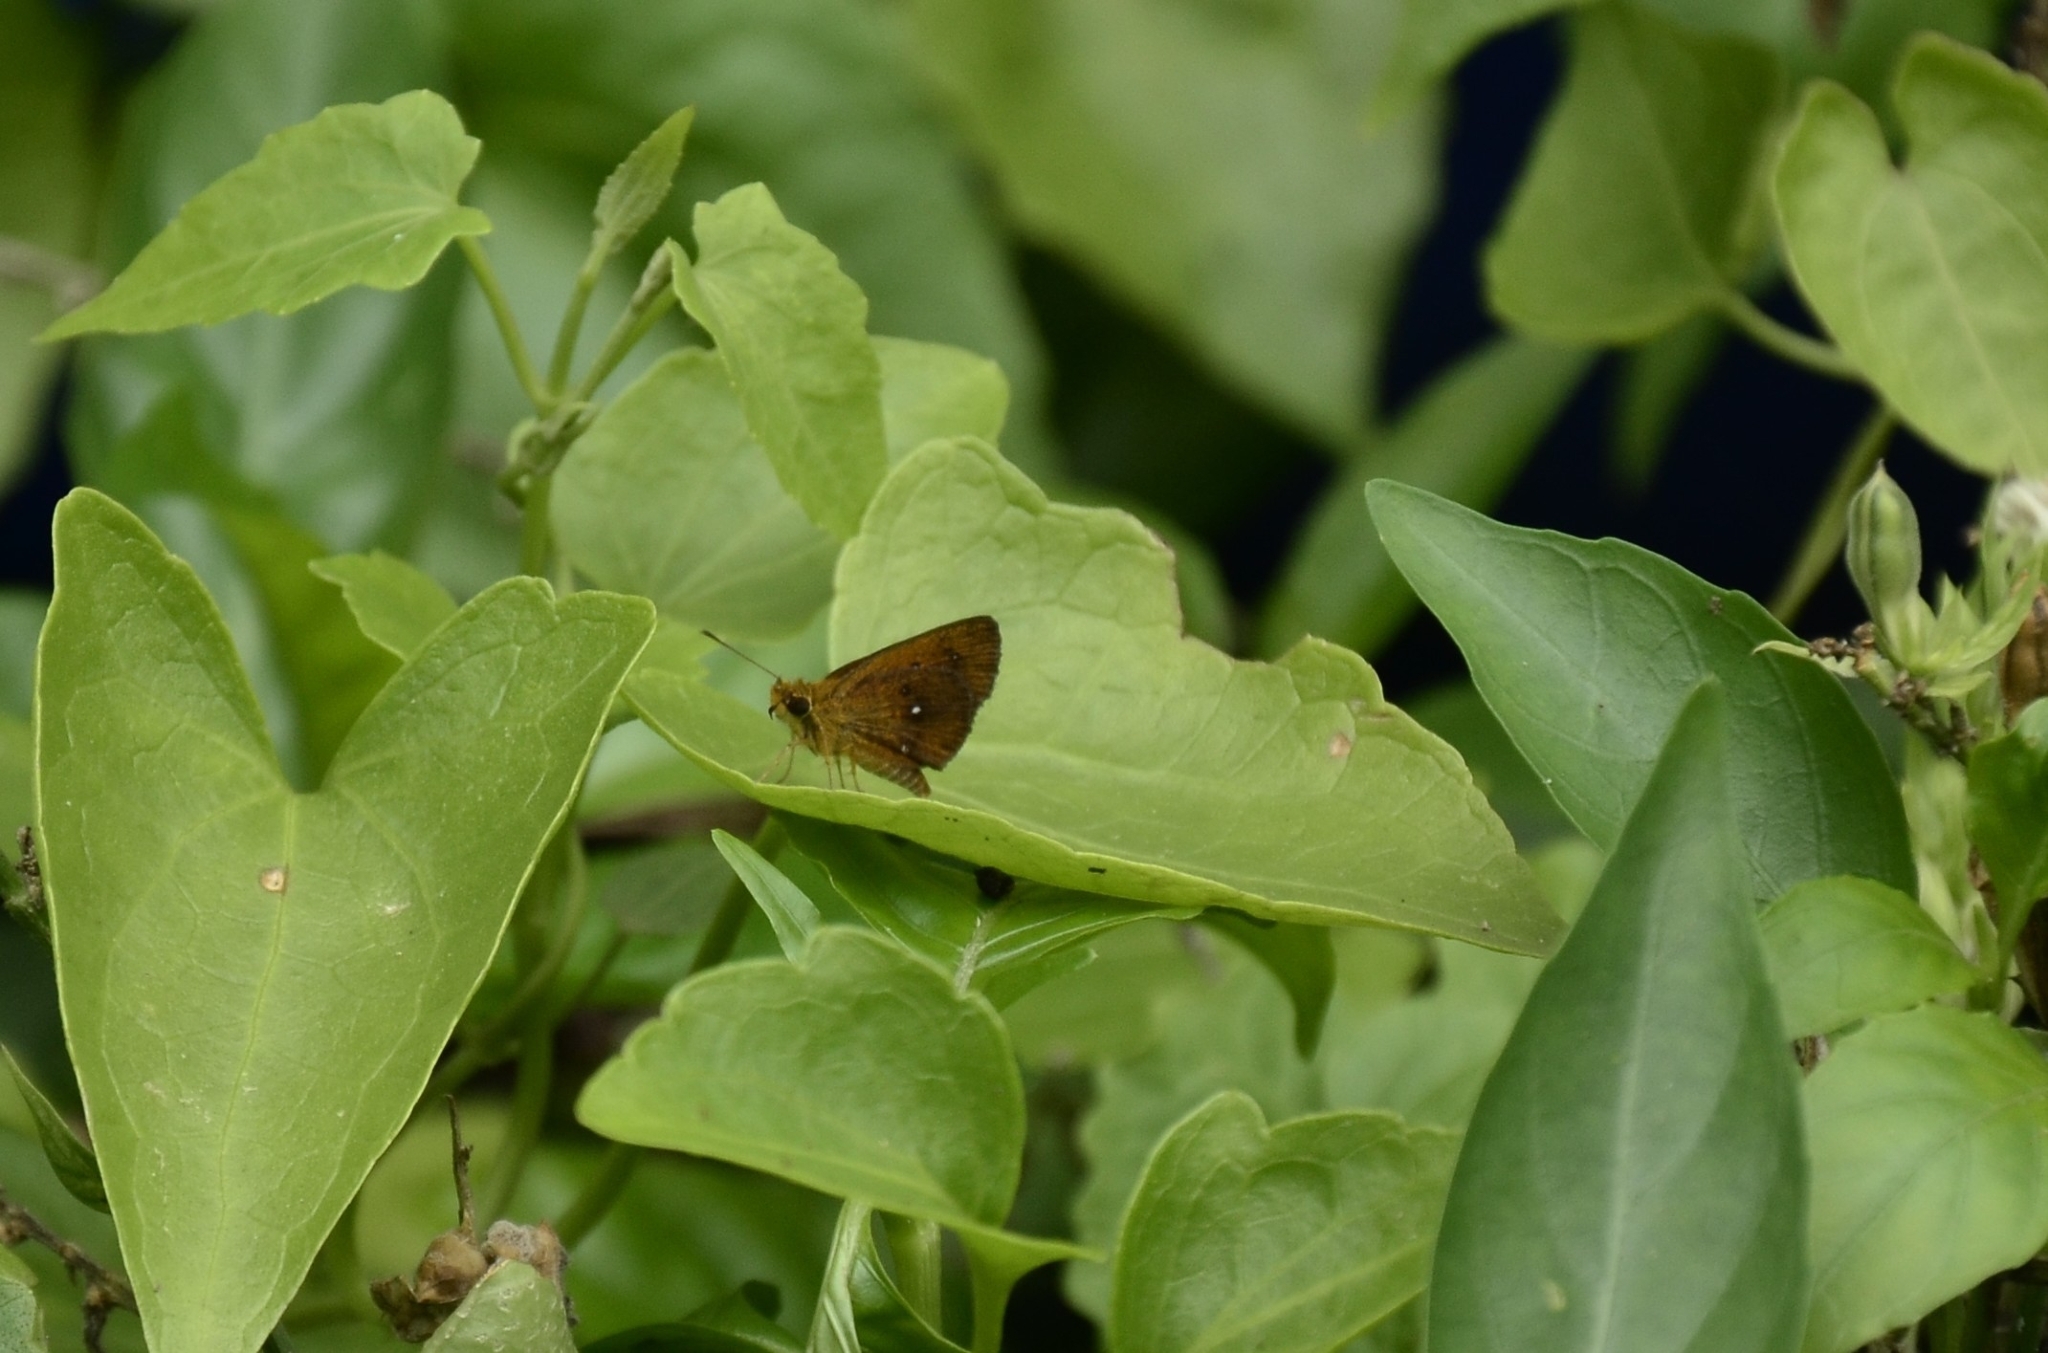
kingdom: Animalia
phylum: Arthropoda
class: Insecta
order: Lepidoptera
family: Hesperiidae
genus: Iambrix
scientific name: Iambrix salsala
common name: Chestnut bob
